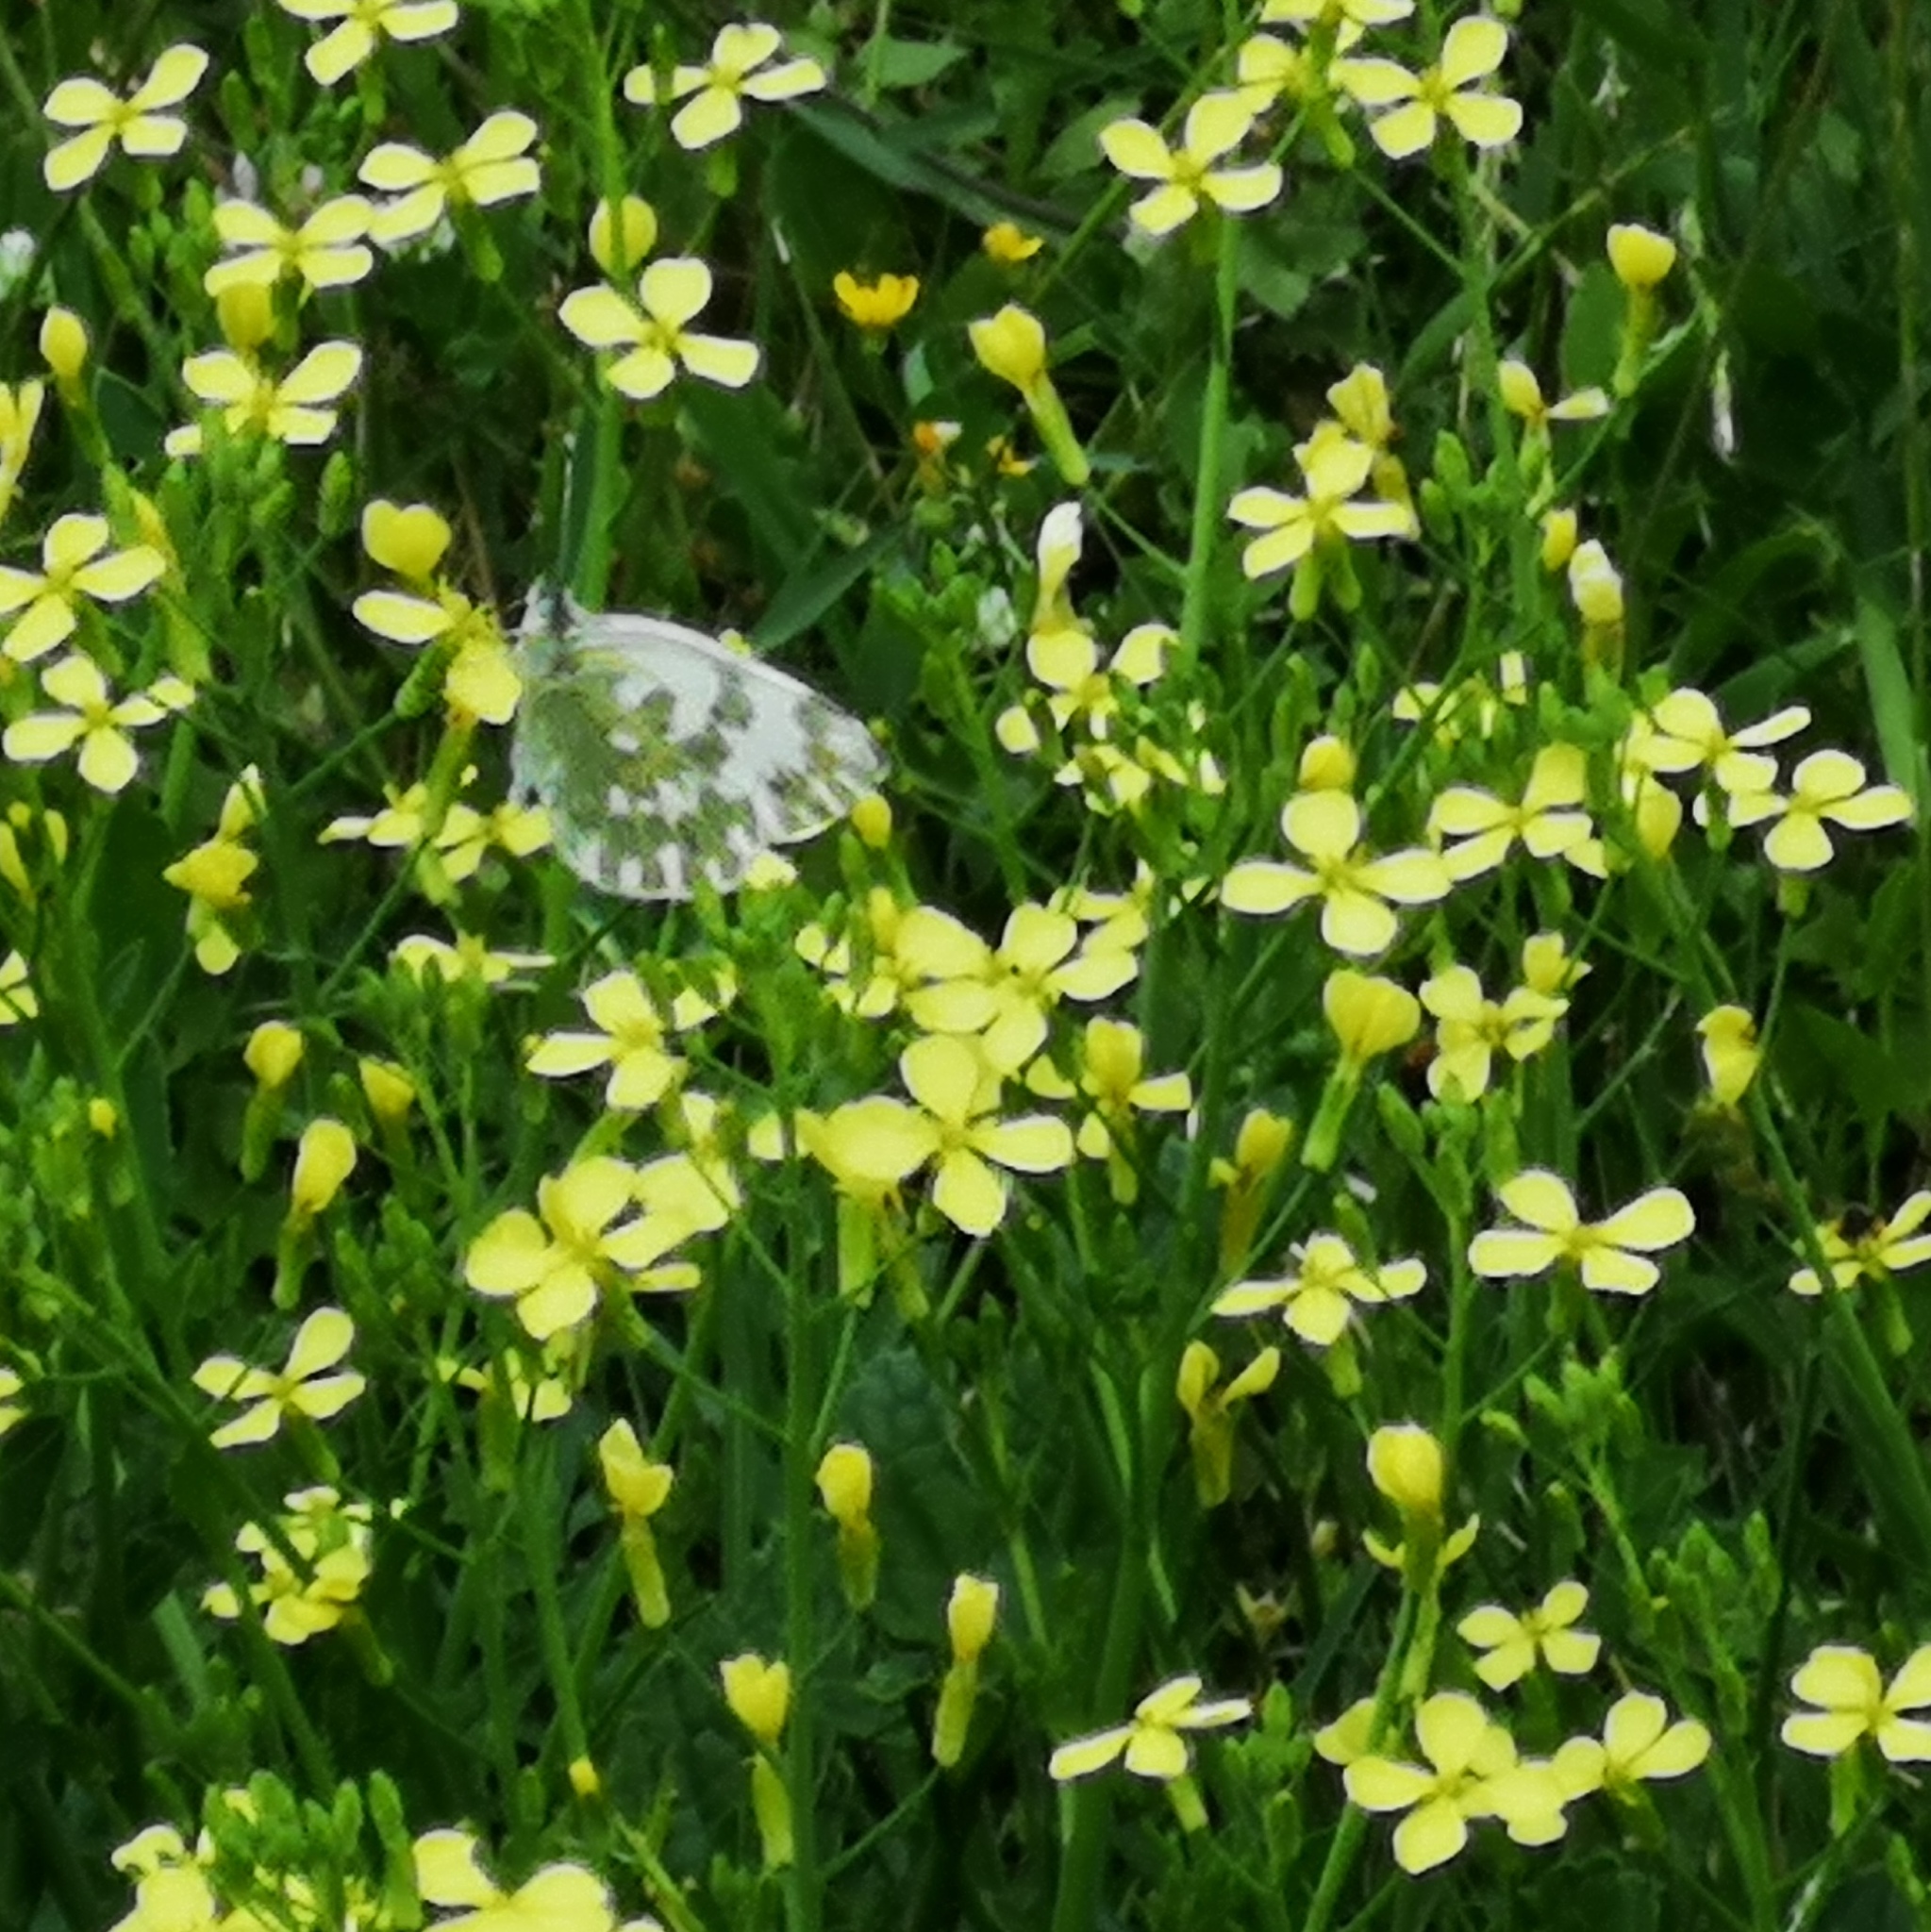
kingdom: Animalia
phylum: Arthropoda
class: Insecta
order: Lepidoptera
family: Pieridae
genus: Pontia
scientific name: Pontia edusa
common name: Eastern bath white
